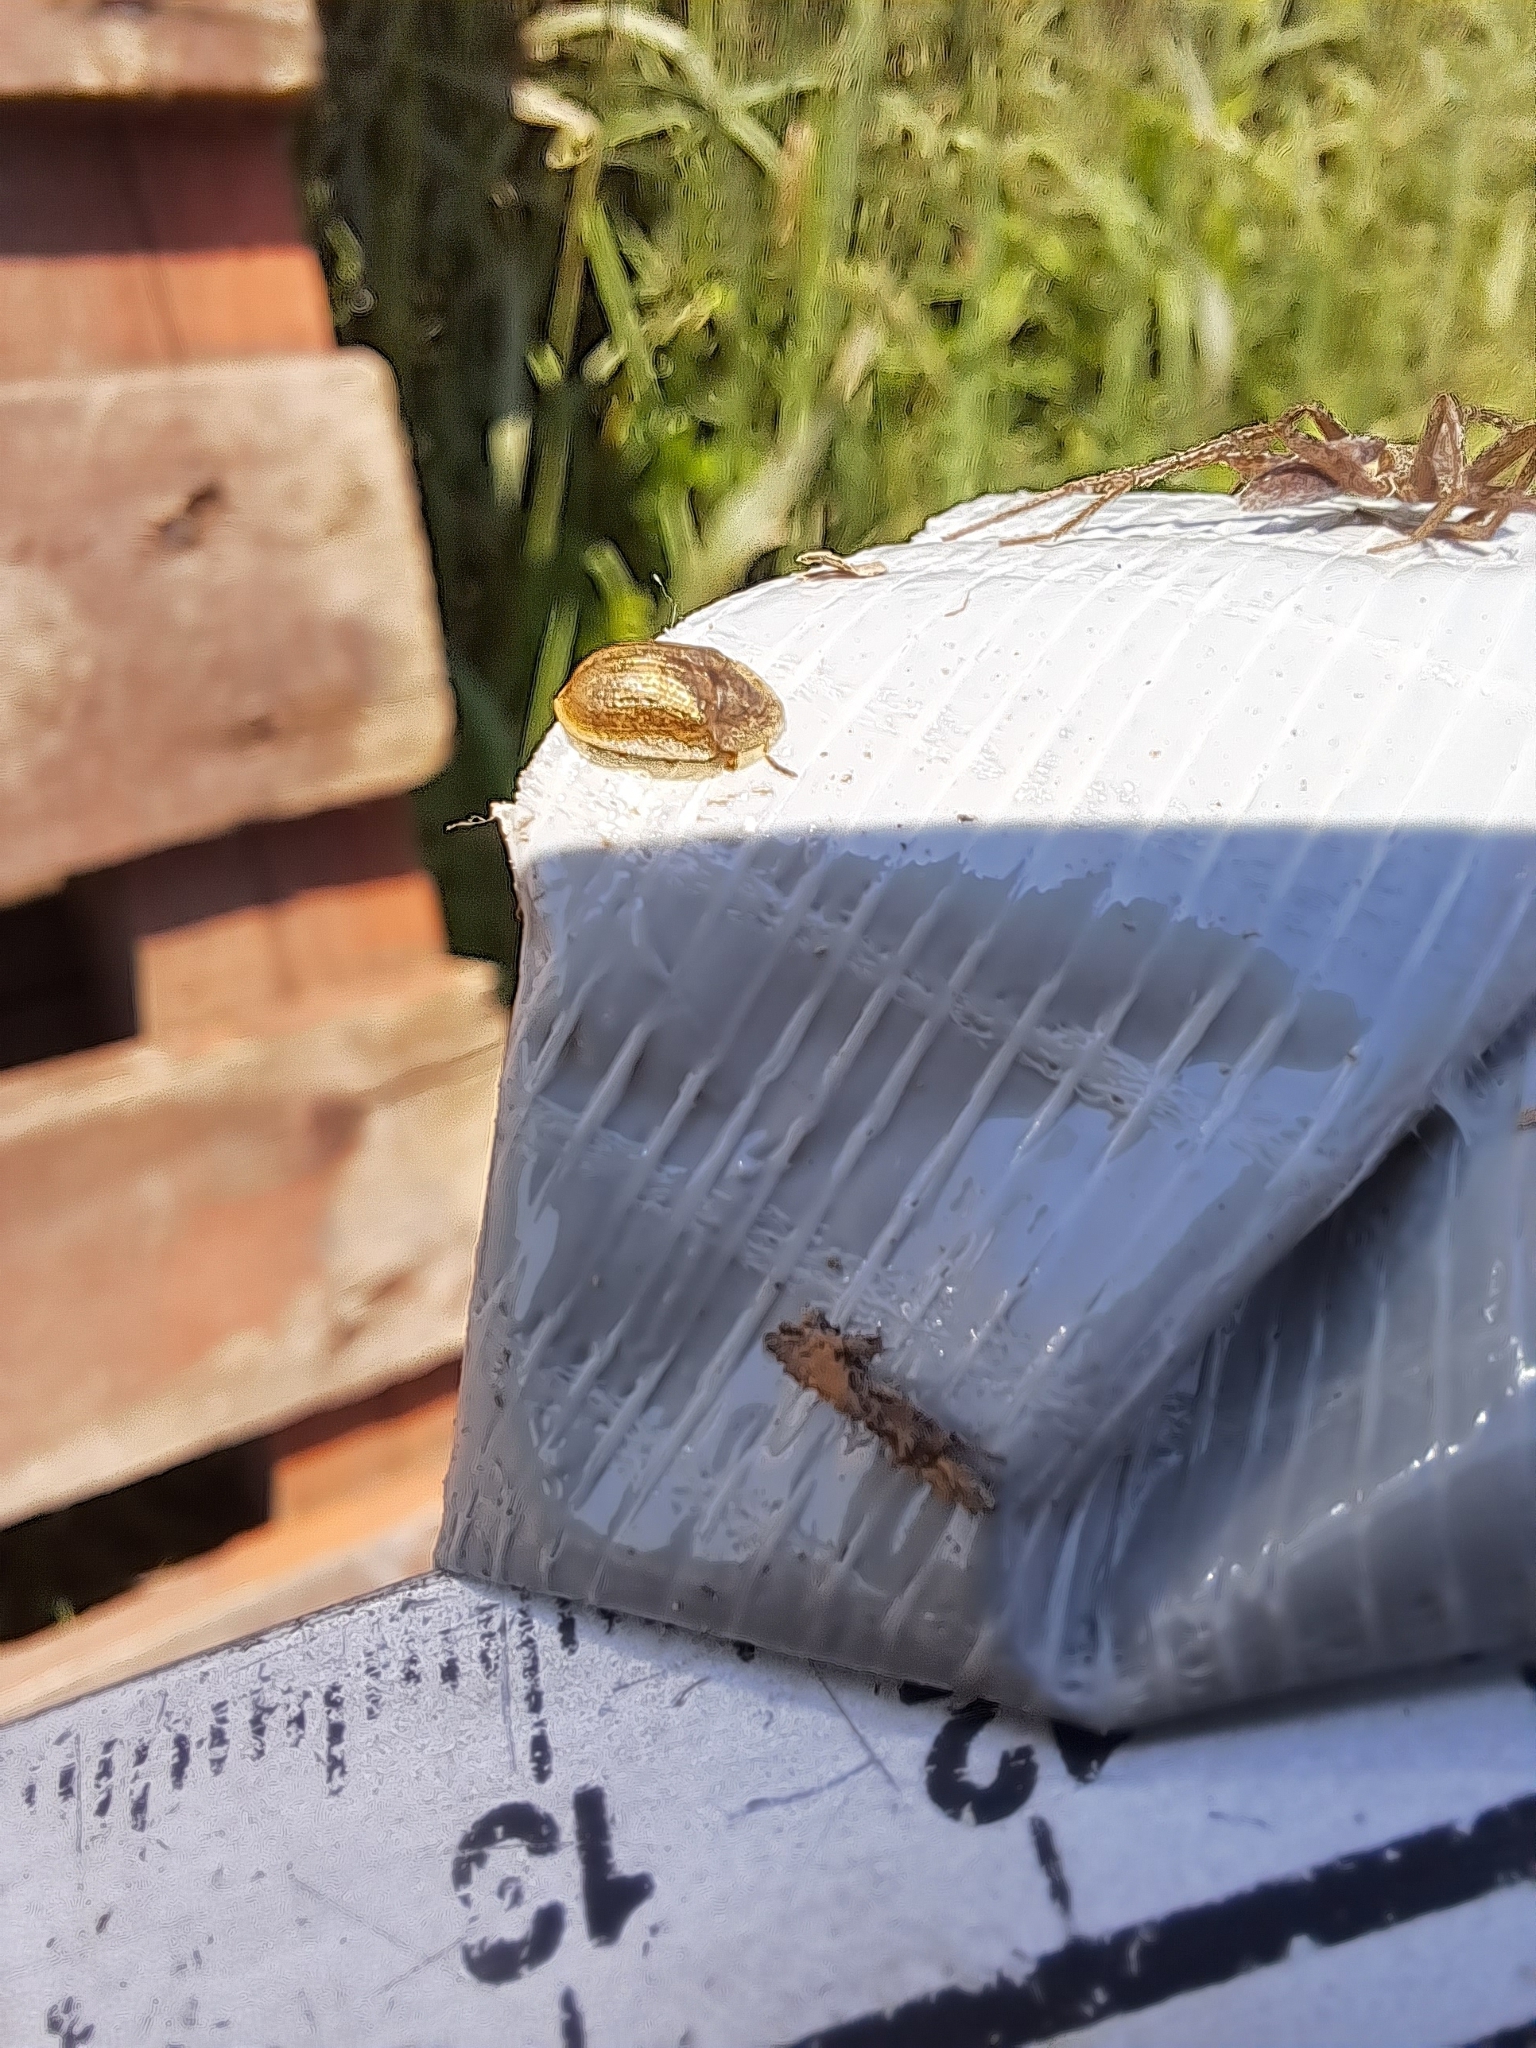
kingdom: Animalia
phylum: Arthropoda
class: Insecta
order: Coleoptera
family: Chrysomelidae
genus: Cassida
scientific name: Cassida flaveola
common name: Pale tortoise beetle
